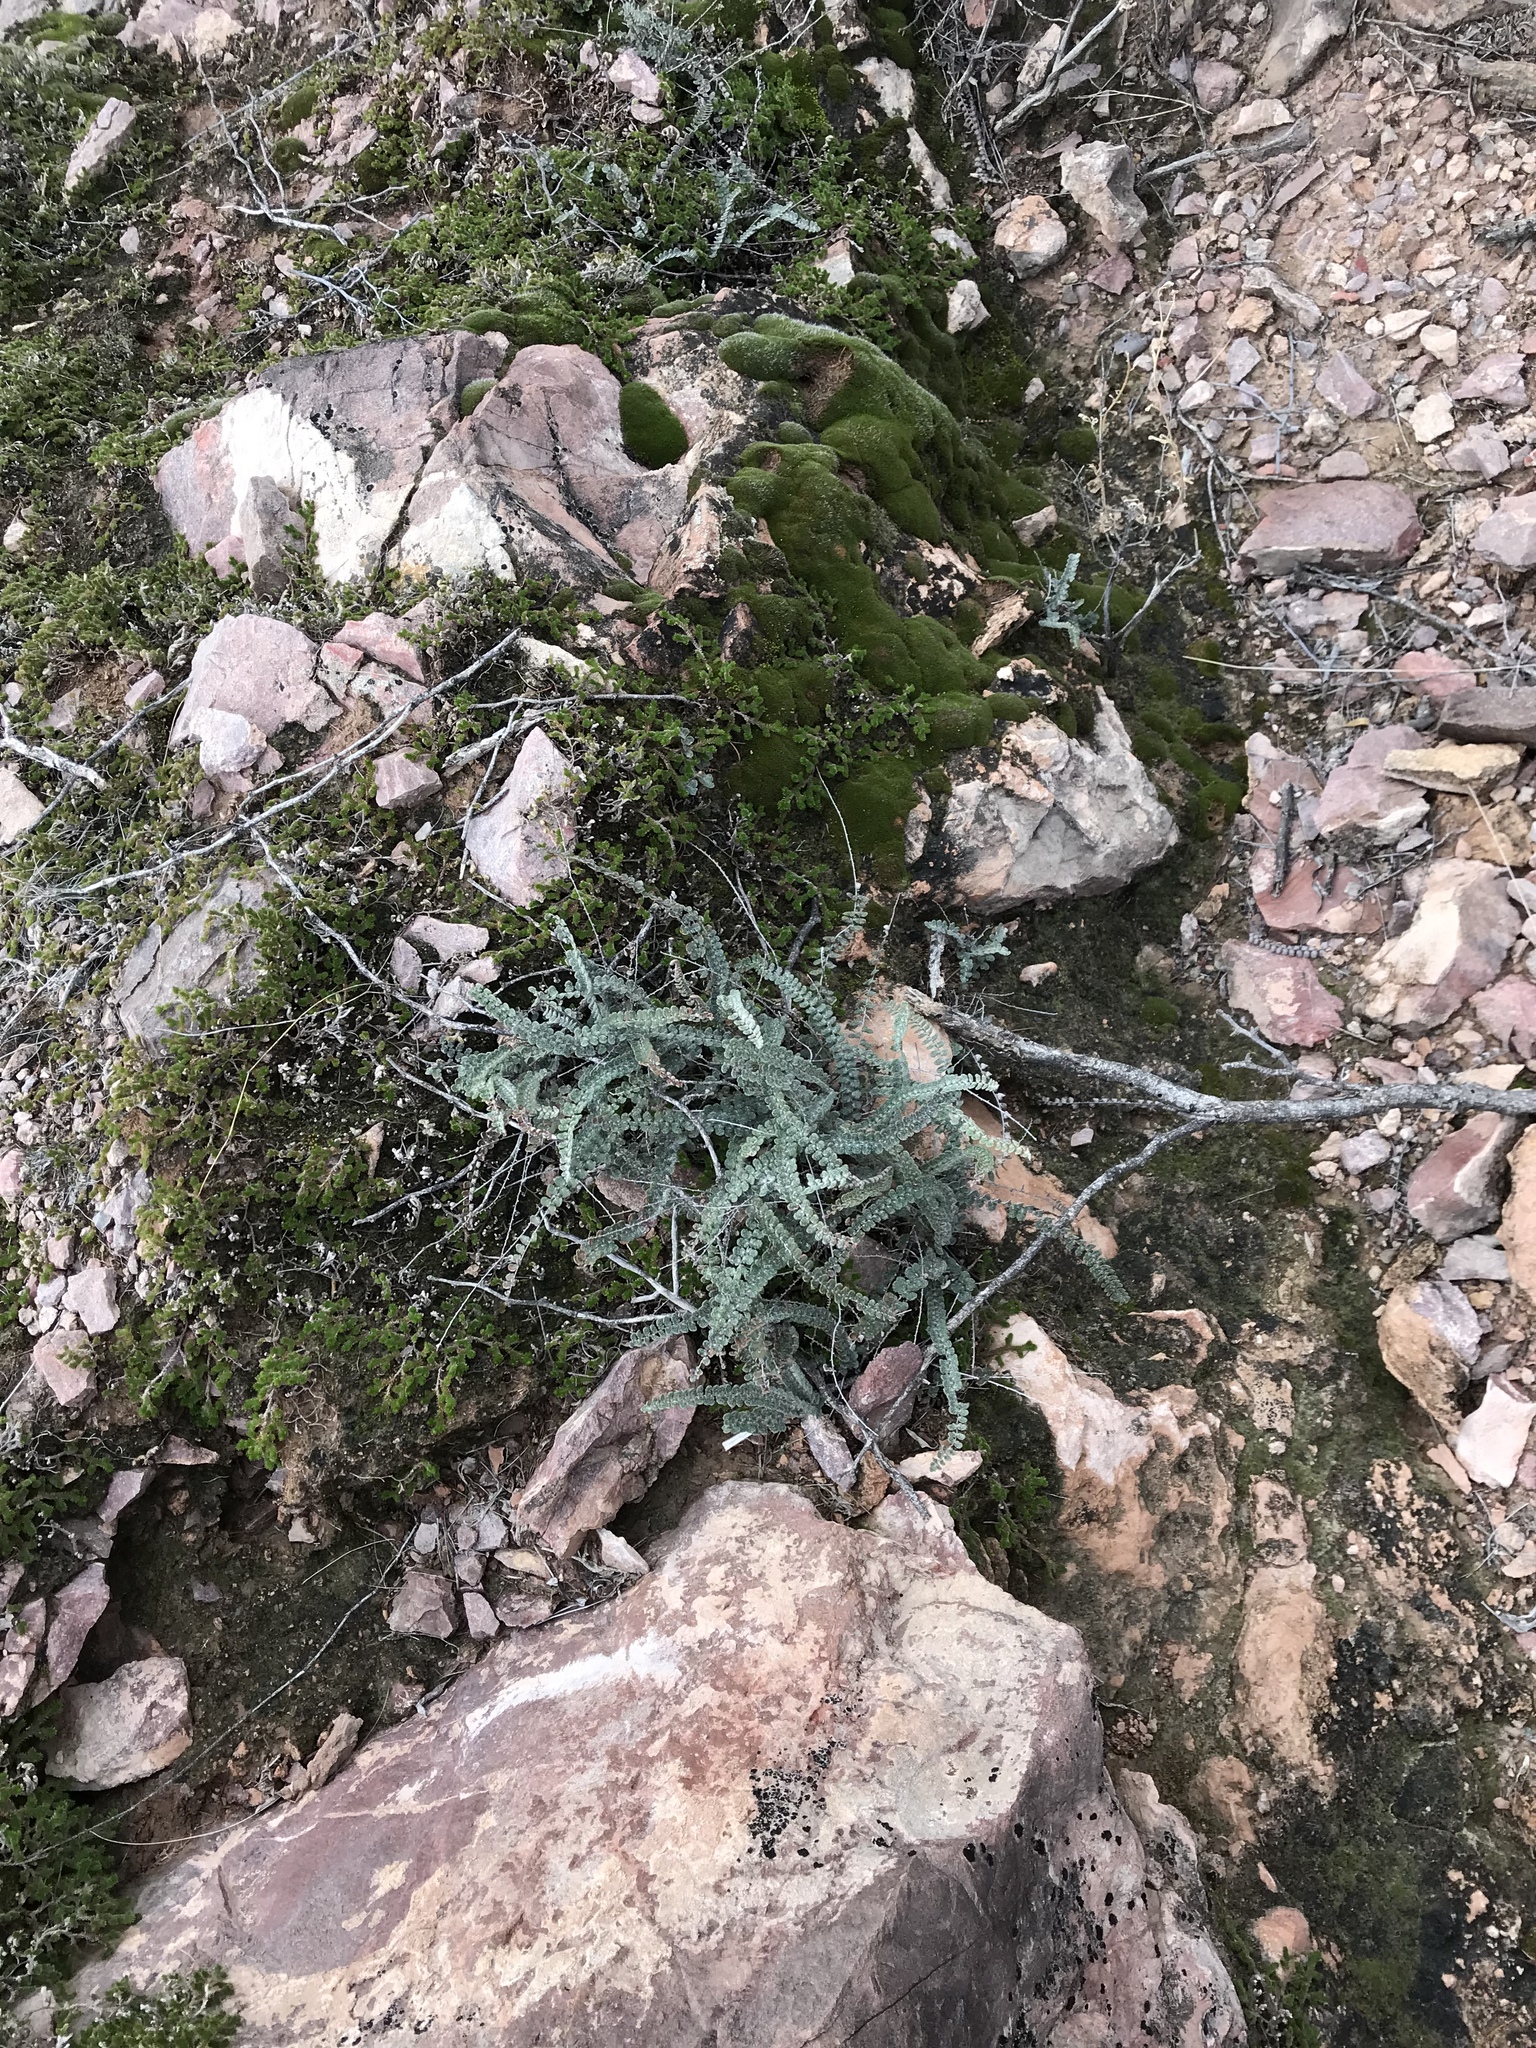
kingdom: Plantae
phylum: Tracheophyta
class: Polypodiopsida
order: Polypodiales
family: Pteridaceae
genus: Astrolepis
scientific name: Astrolepis cochisensis
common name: Scaly cloak fern
